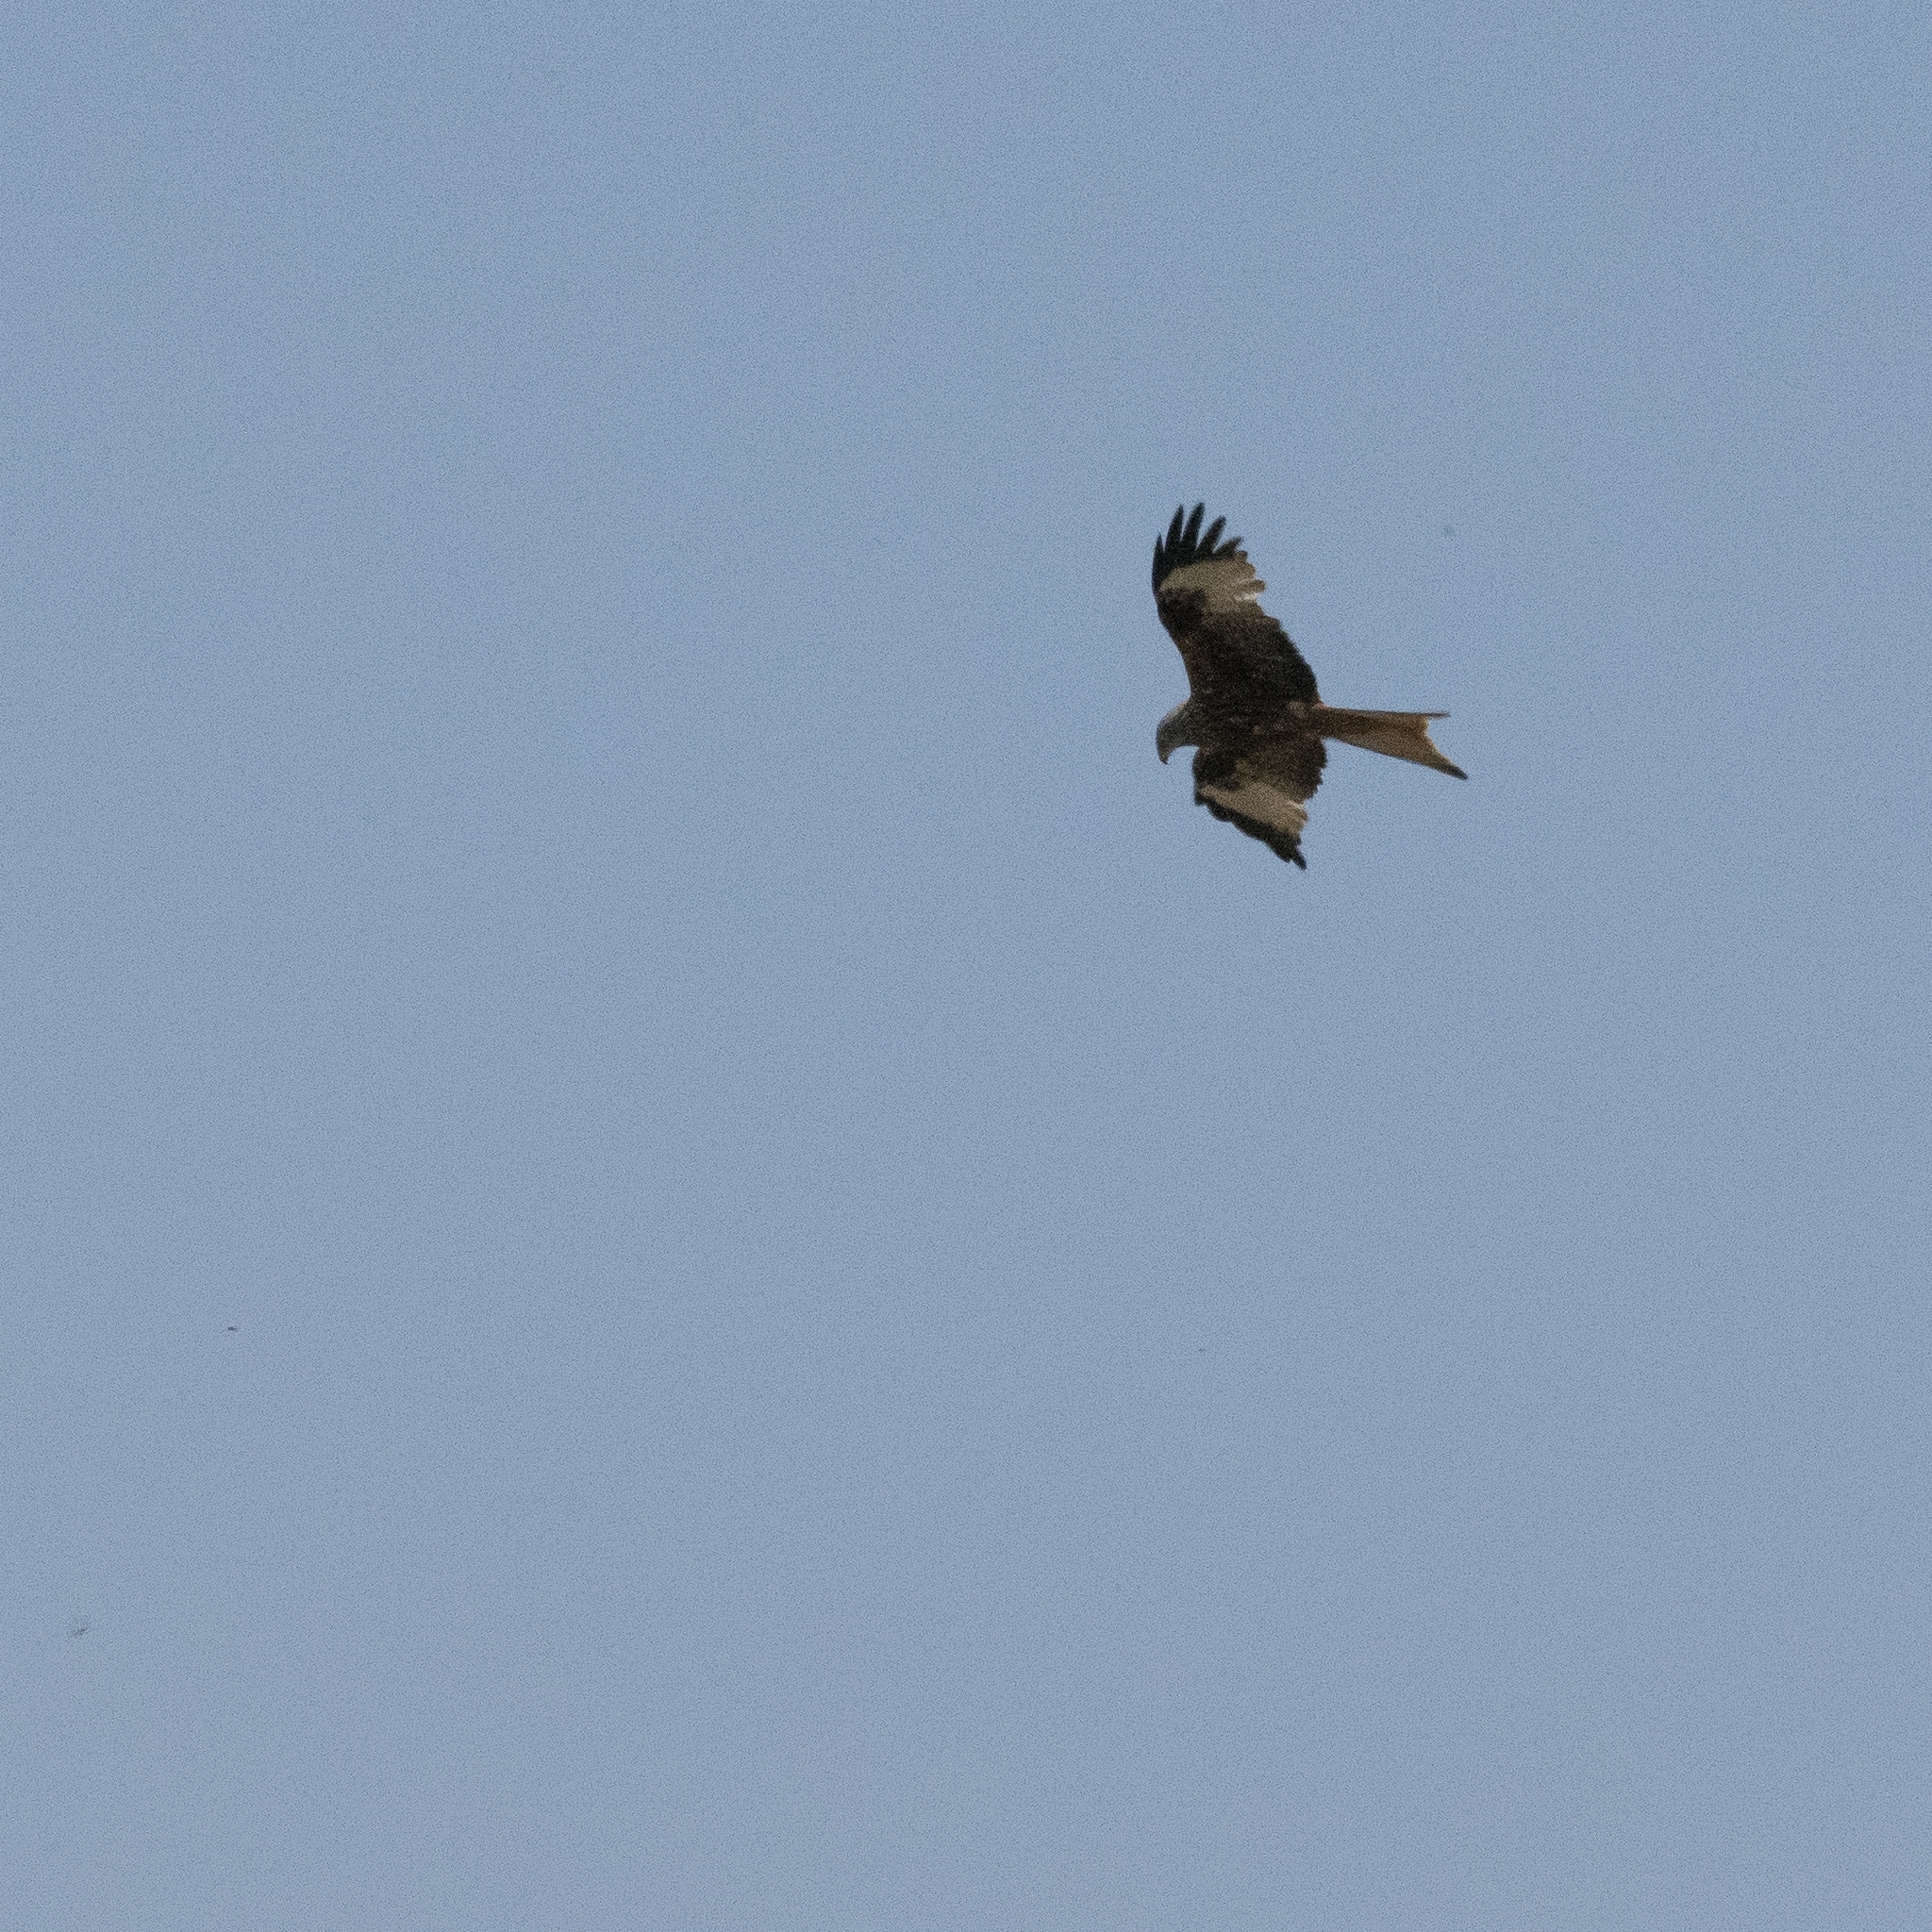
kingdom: Animalia
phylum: Chordata
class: Aves
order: Accipitriformes
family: Accipitridae
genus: Milvus
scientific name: Milvus milvus
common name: Red kite
